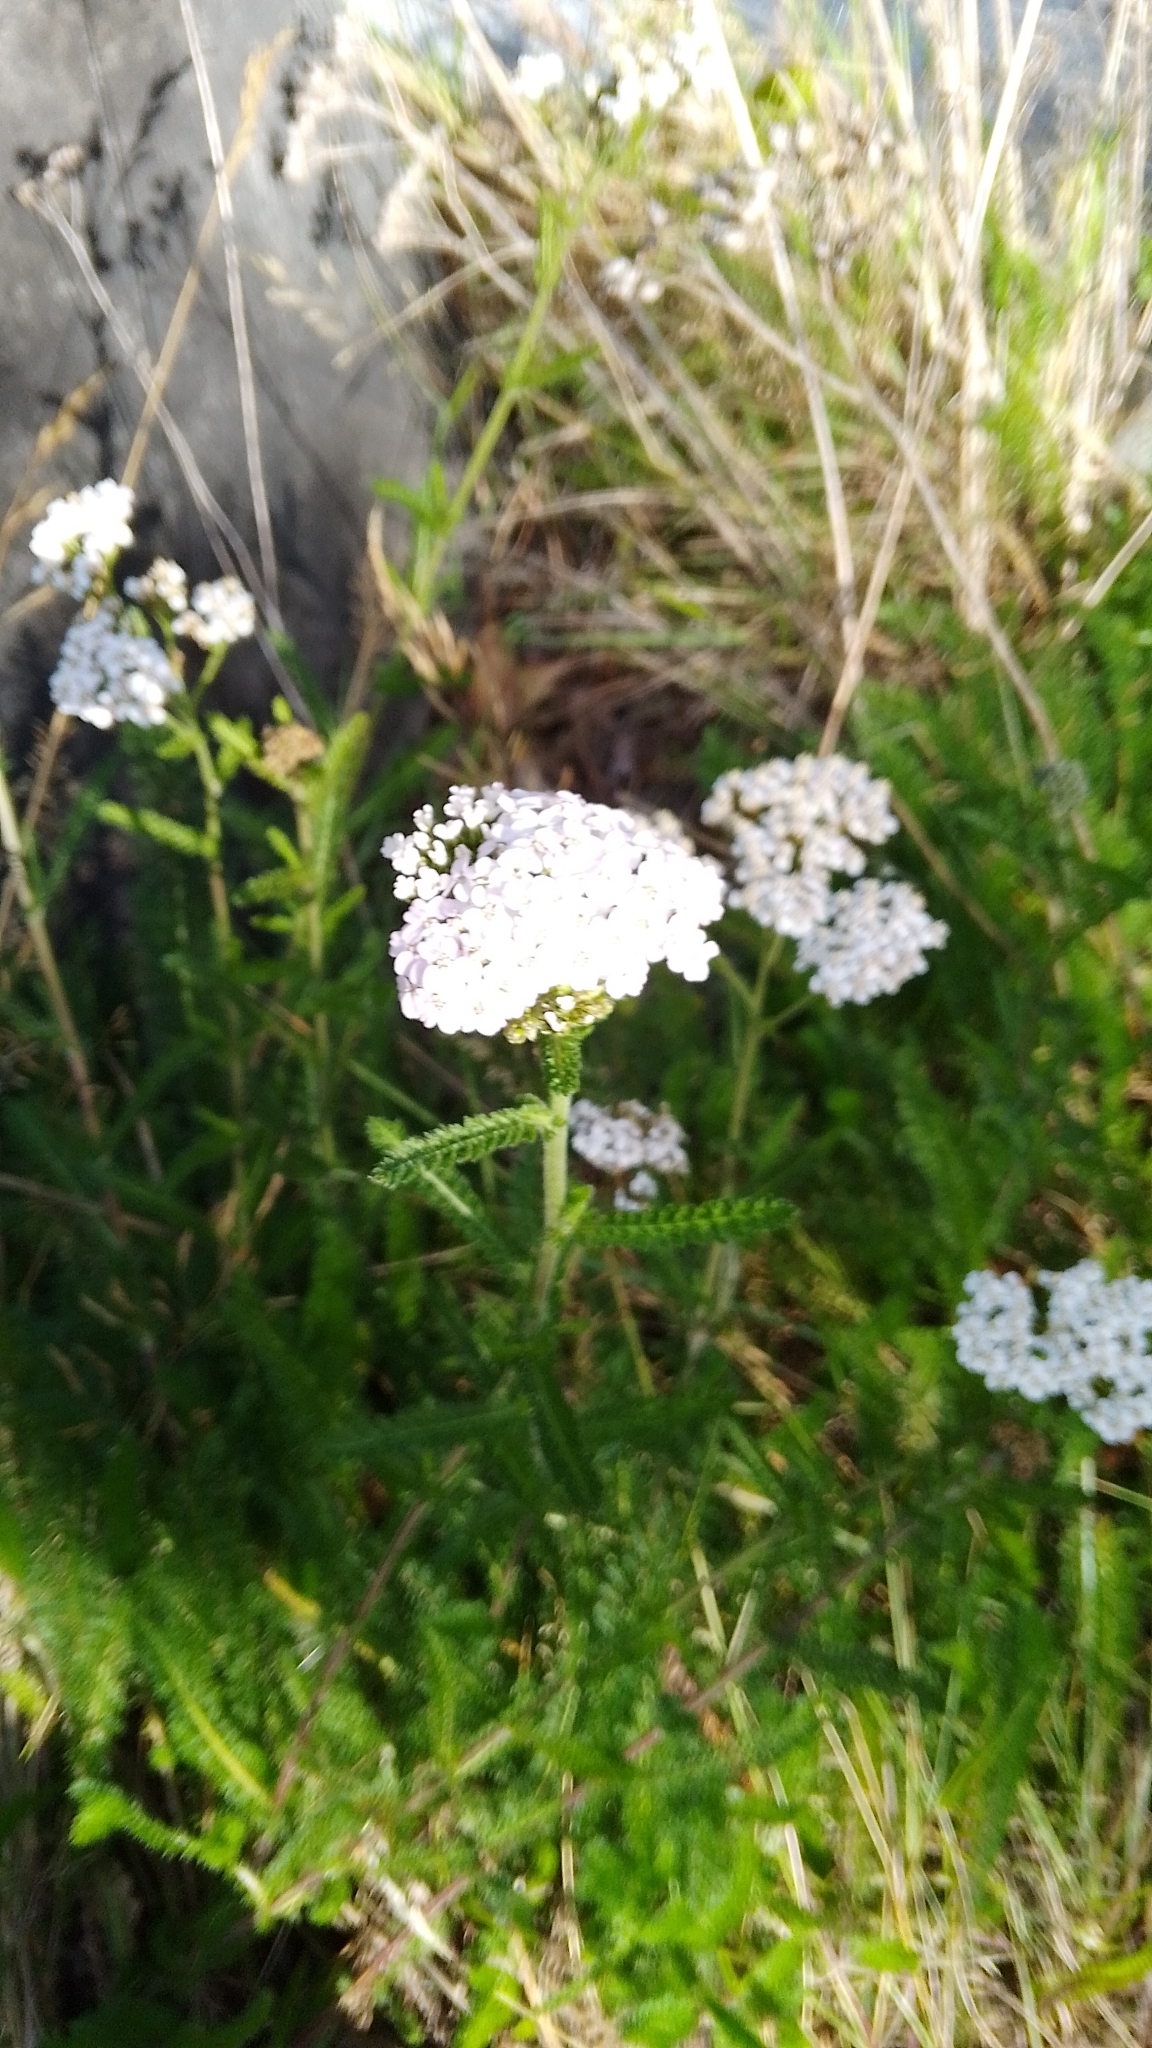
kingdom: Plantae
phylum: Tracheophyta
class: Magnoliopsida
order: Asterales
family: Asteraceae
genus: Achillea
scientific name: Achillea millefolium
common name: Yarrow
